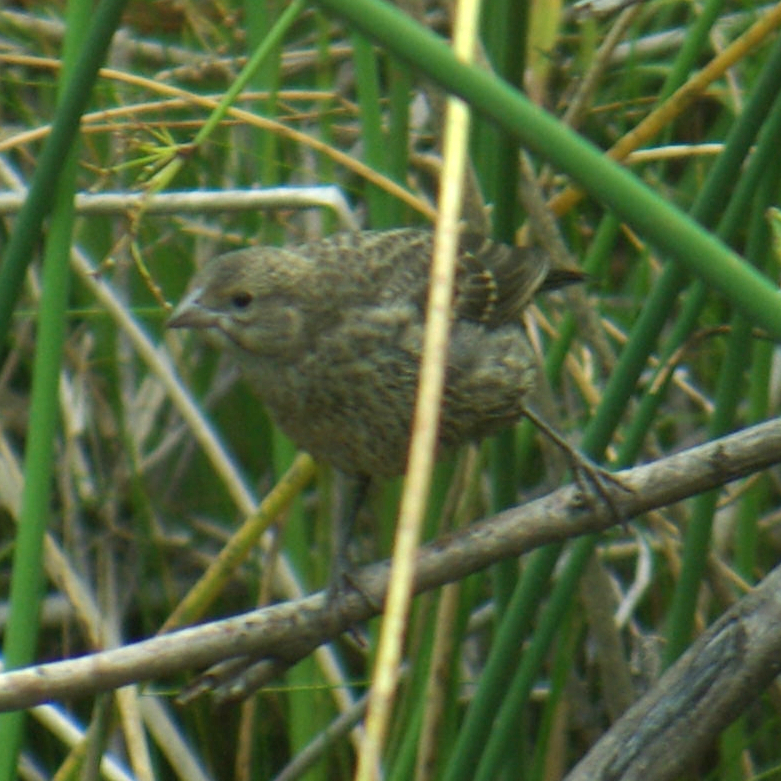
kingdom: Animalia
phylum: Chordata
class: Aves
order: Passeriformes
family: Icteridae
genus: Molothrus
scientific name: Molothrus ater
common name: Brown-headed cowbird
